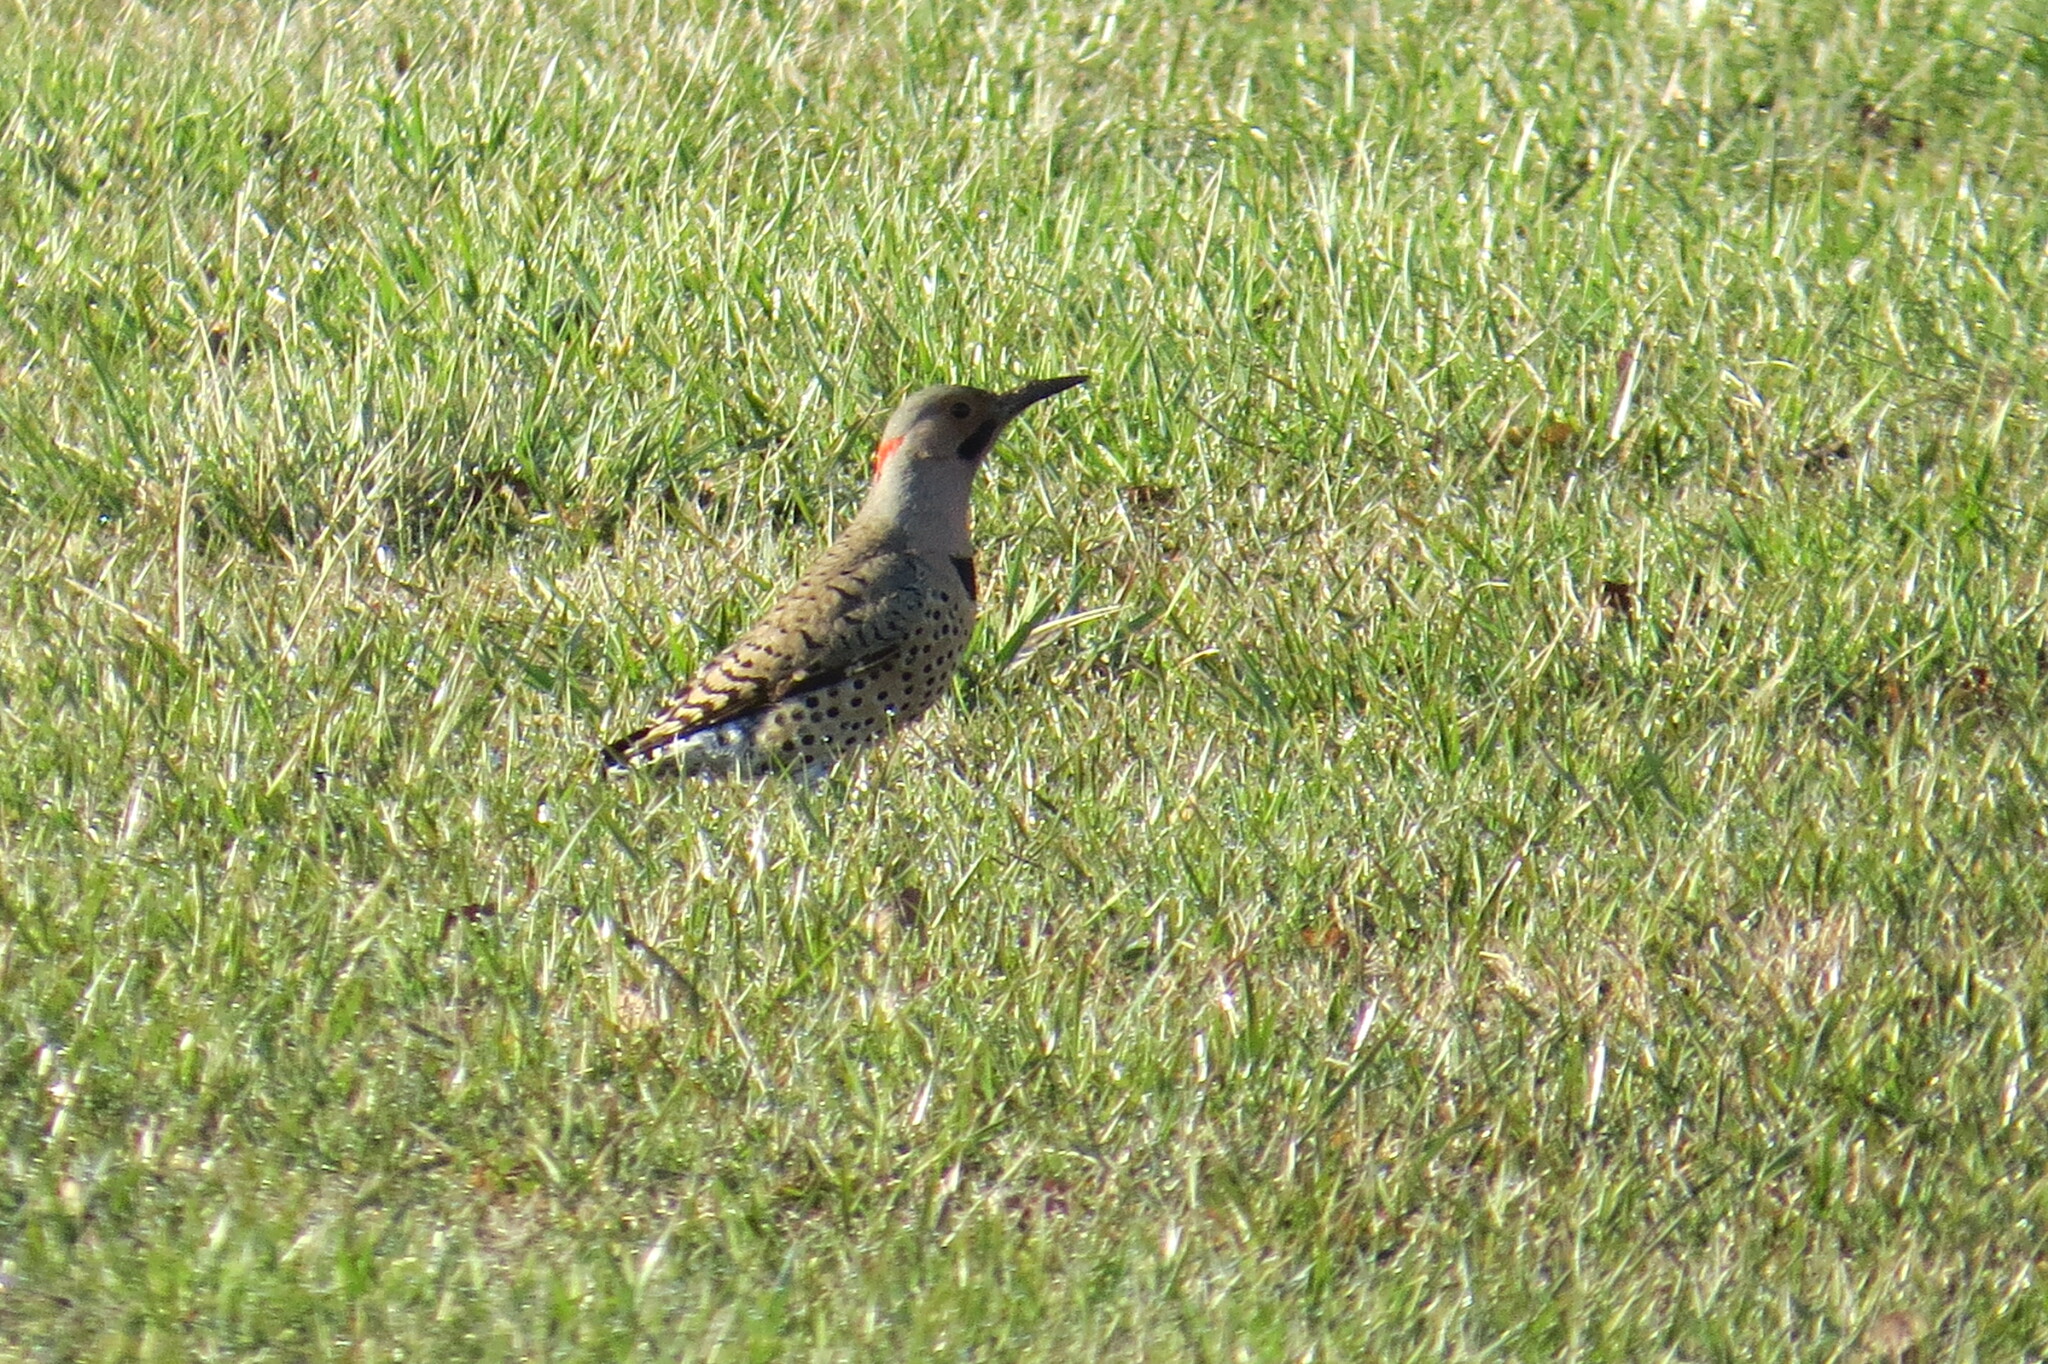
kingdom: Animalia
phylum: Chordata
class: Aves
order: Piciformes
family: Picidae
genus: Colaptes
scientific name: Colaptes auratus
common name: Northern flicker
